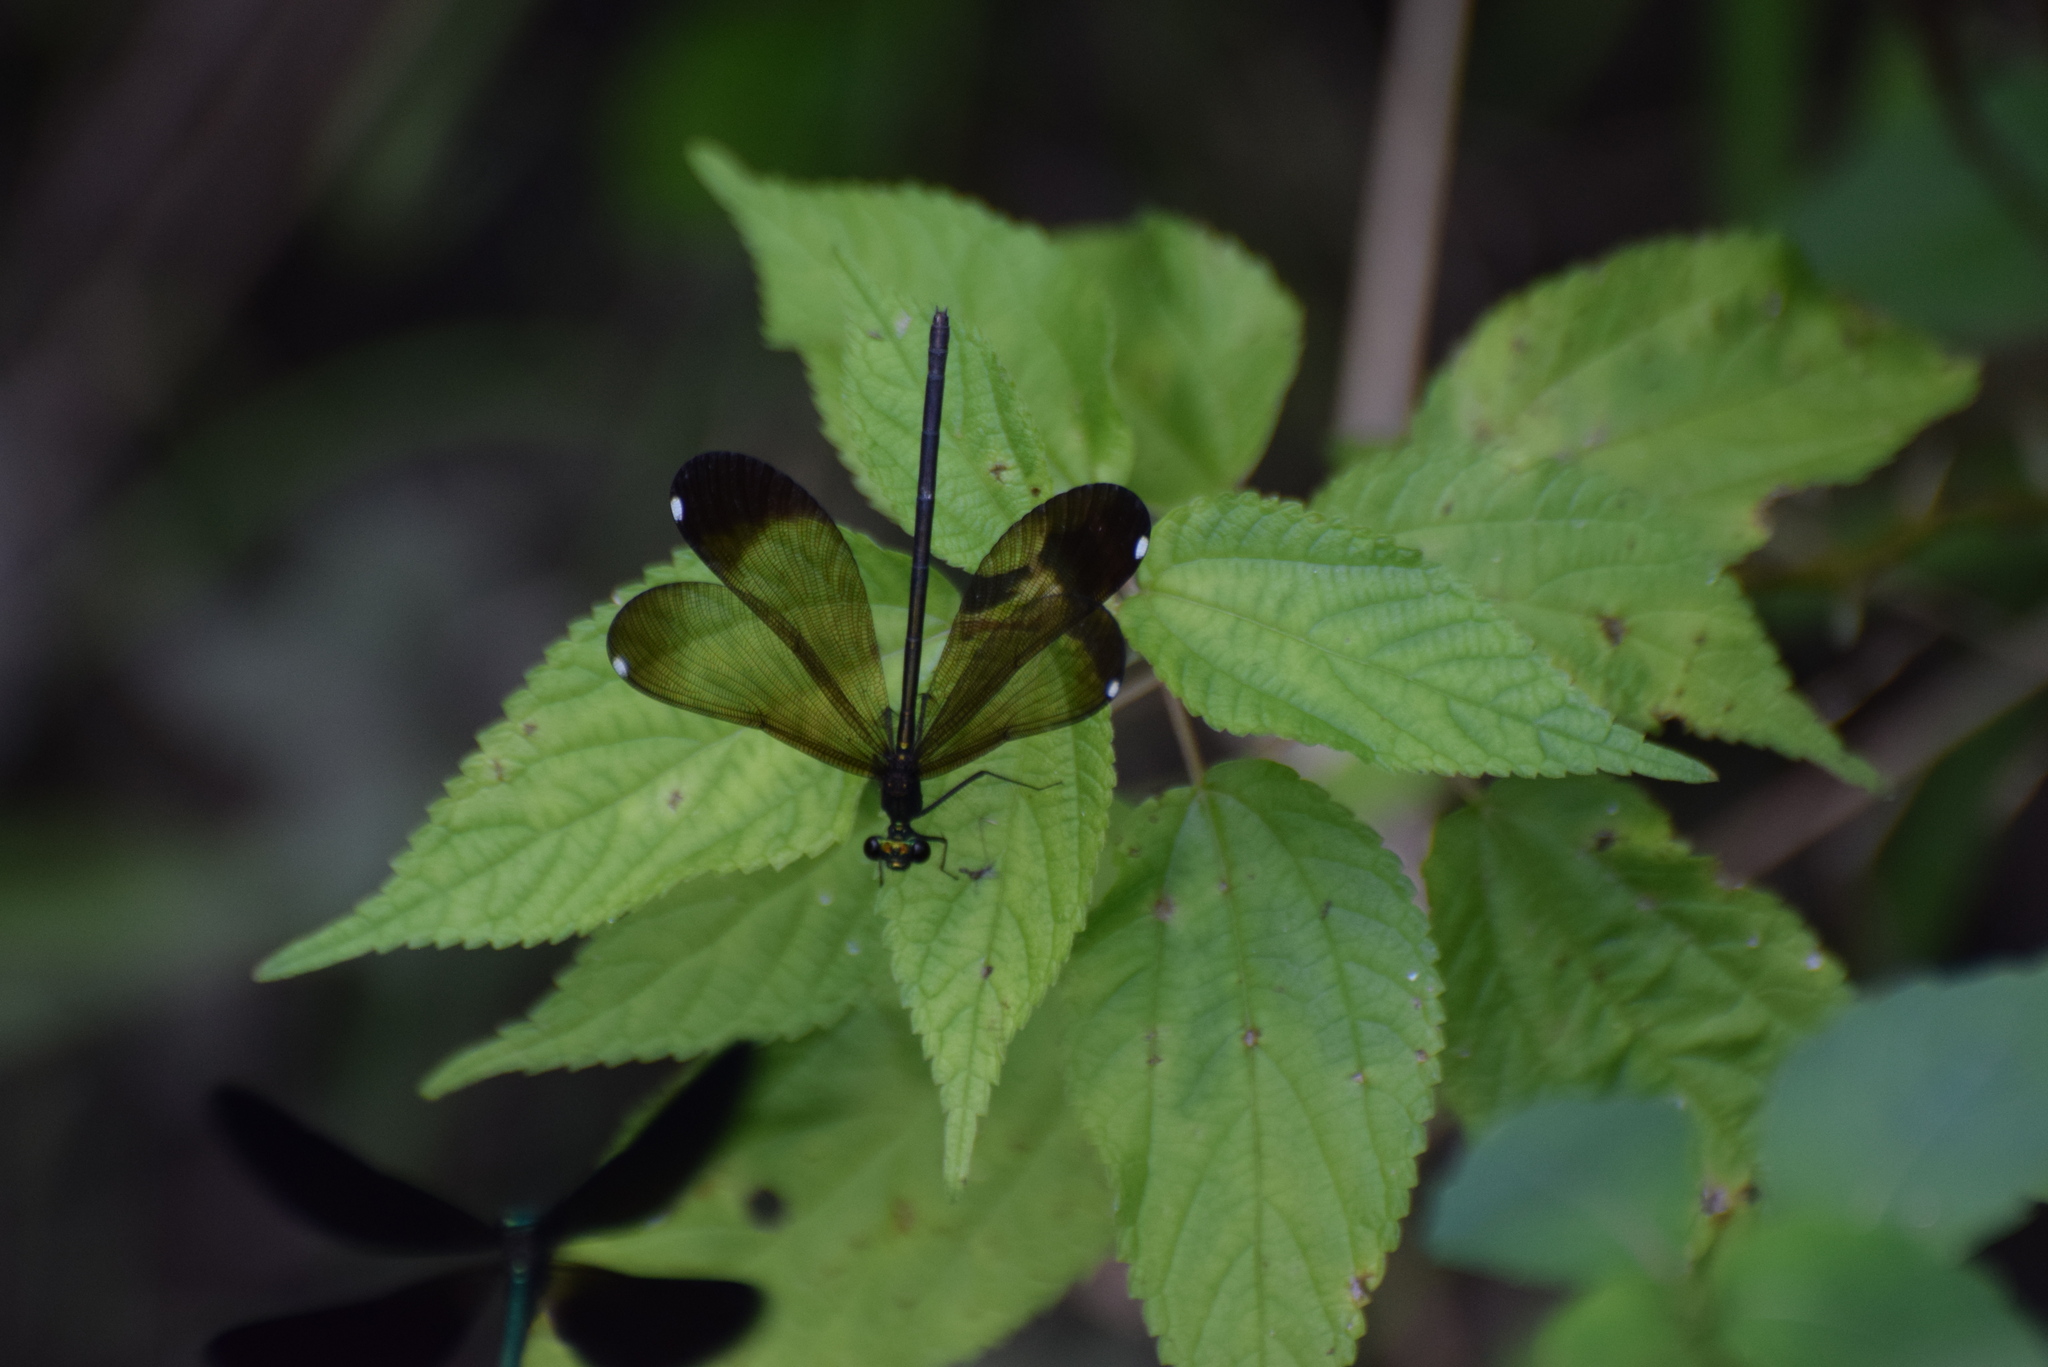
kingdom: Animalia
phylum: Arthropoda
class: Insecta
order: Odonata
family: Calopterygidae
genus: Calopteryx
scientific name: Calopteryx maculata
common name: Ebony jewelwing
